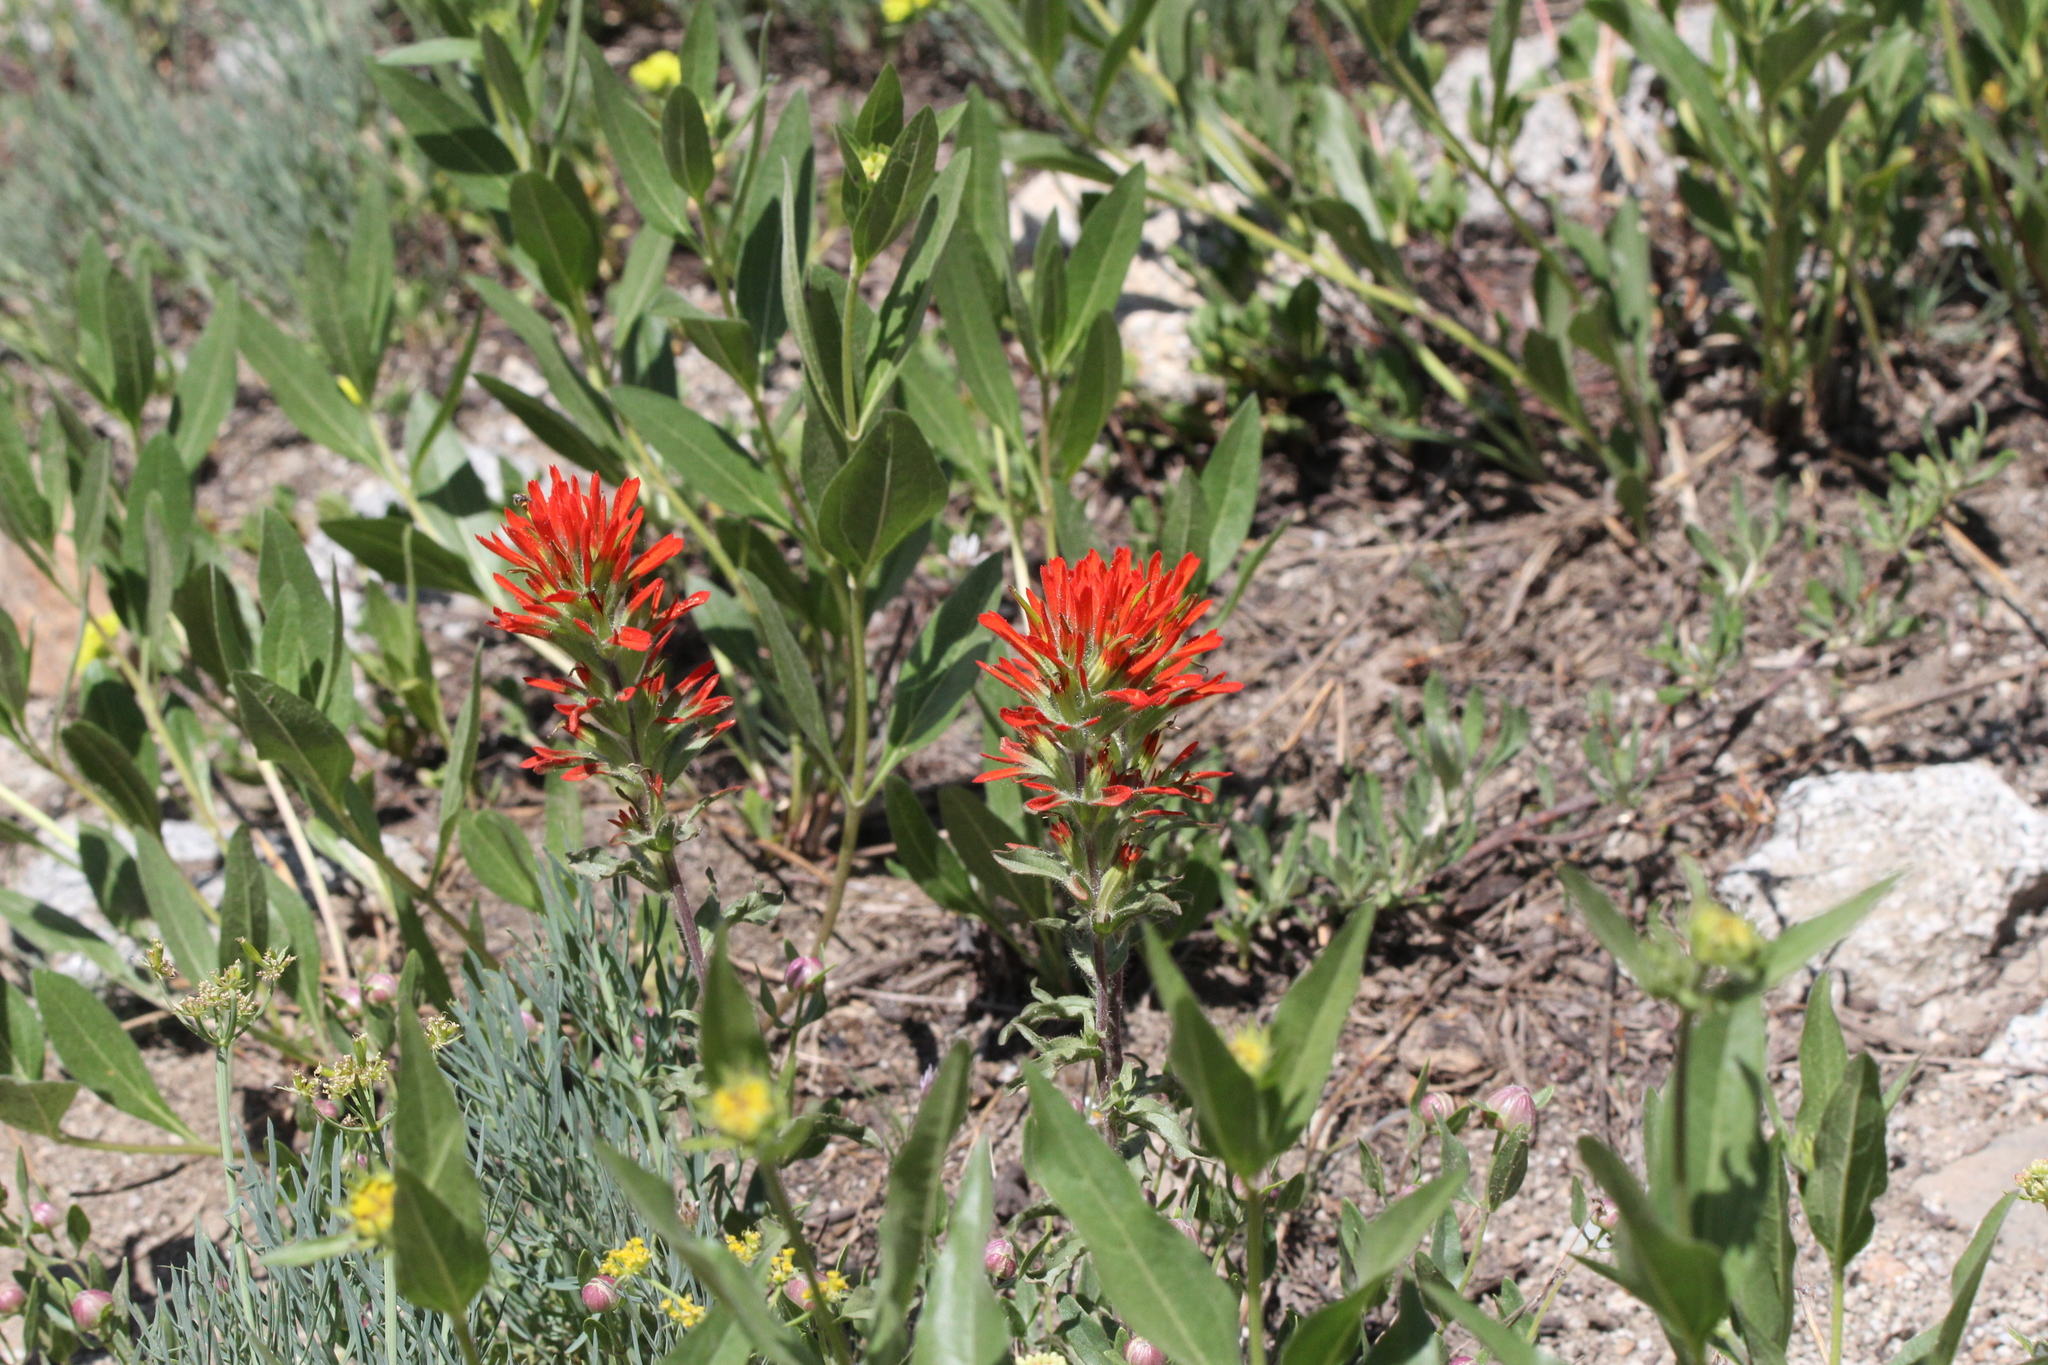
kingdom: Plantae
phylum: Tracheophyta
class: Magnoliopsida
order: Lamiales
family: Orobanchaceae
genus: Castilleja
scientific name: Castilleja applegatei
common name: Wavy-leaf paintbrush
